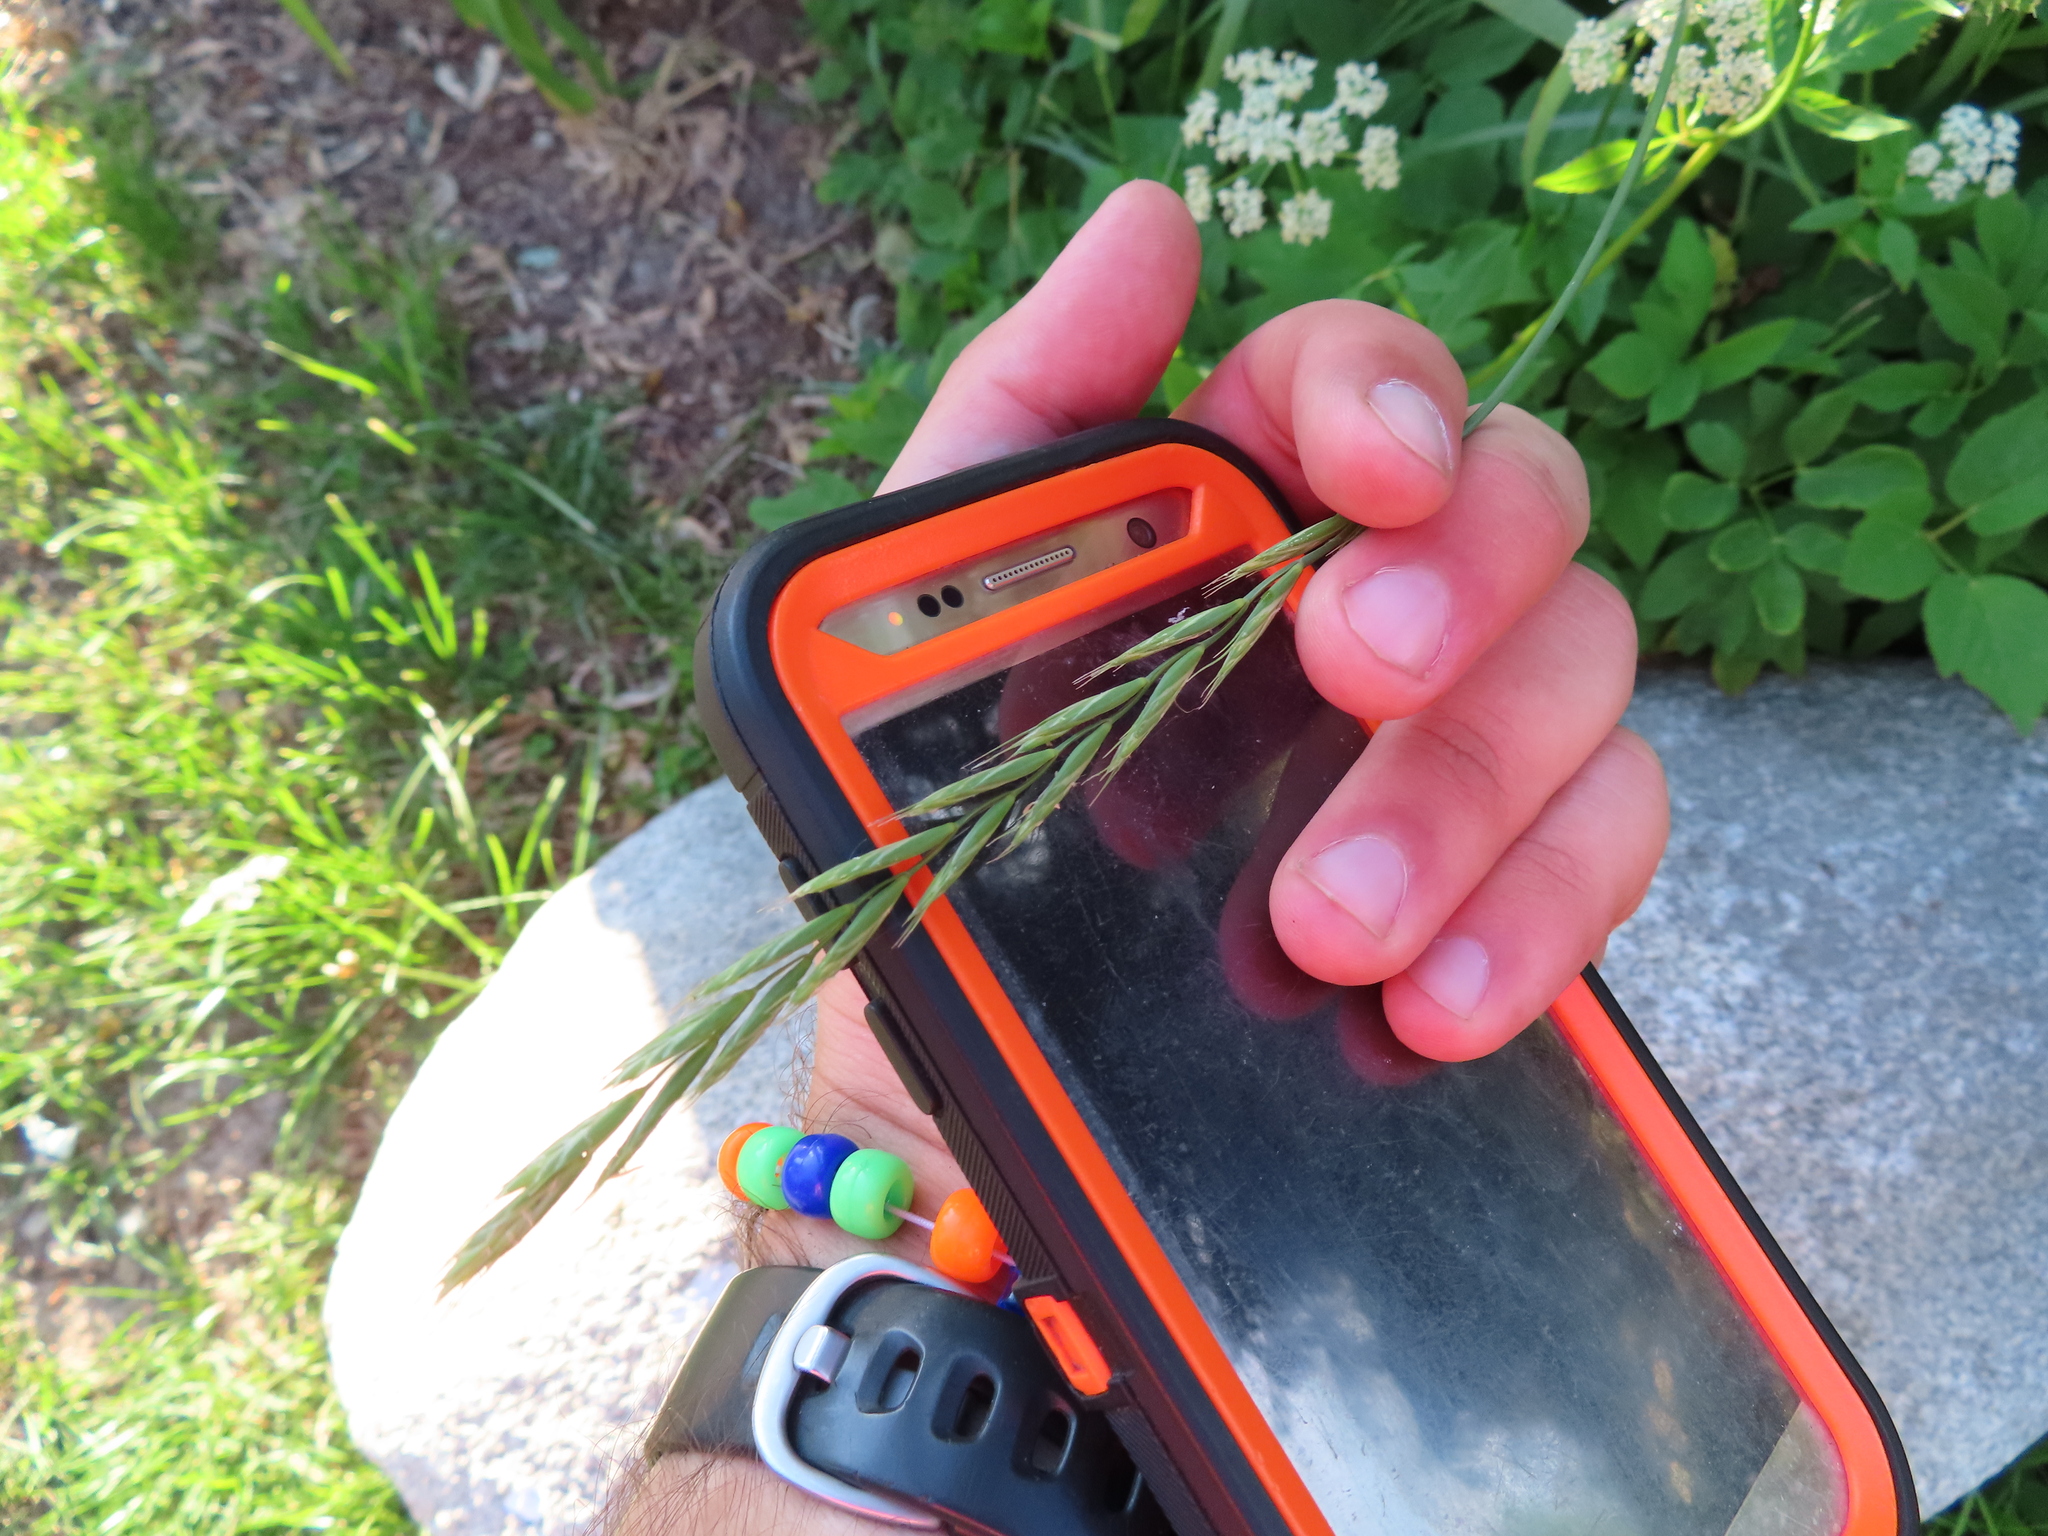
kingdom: Plantae
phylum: Tracheophyta
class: Liliopsida
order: Poales
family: Poaceae
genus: Elymus
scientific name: Elymus repens
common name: Quackgrass
